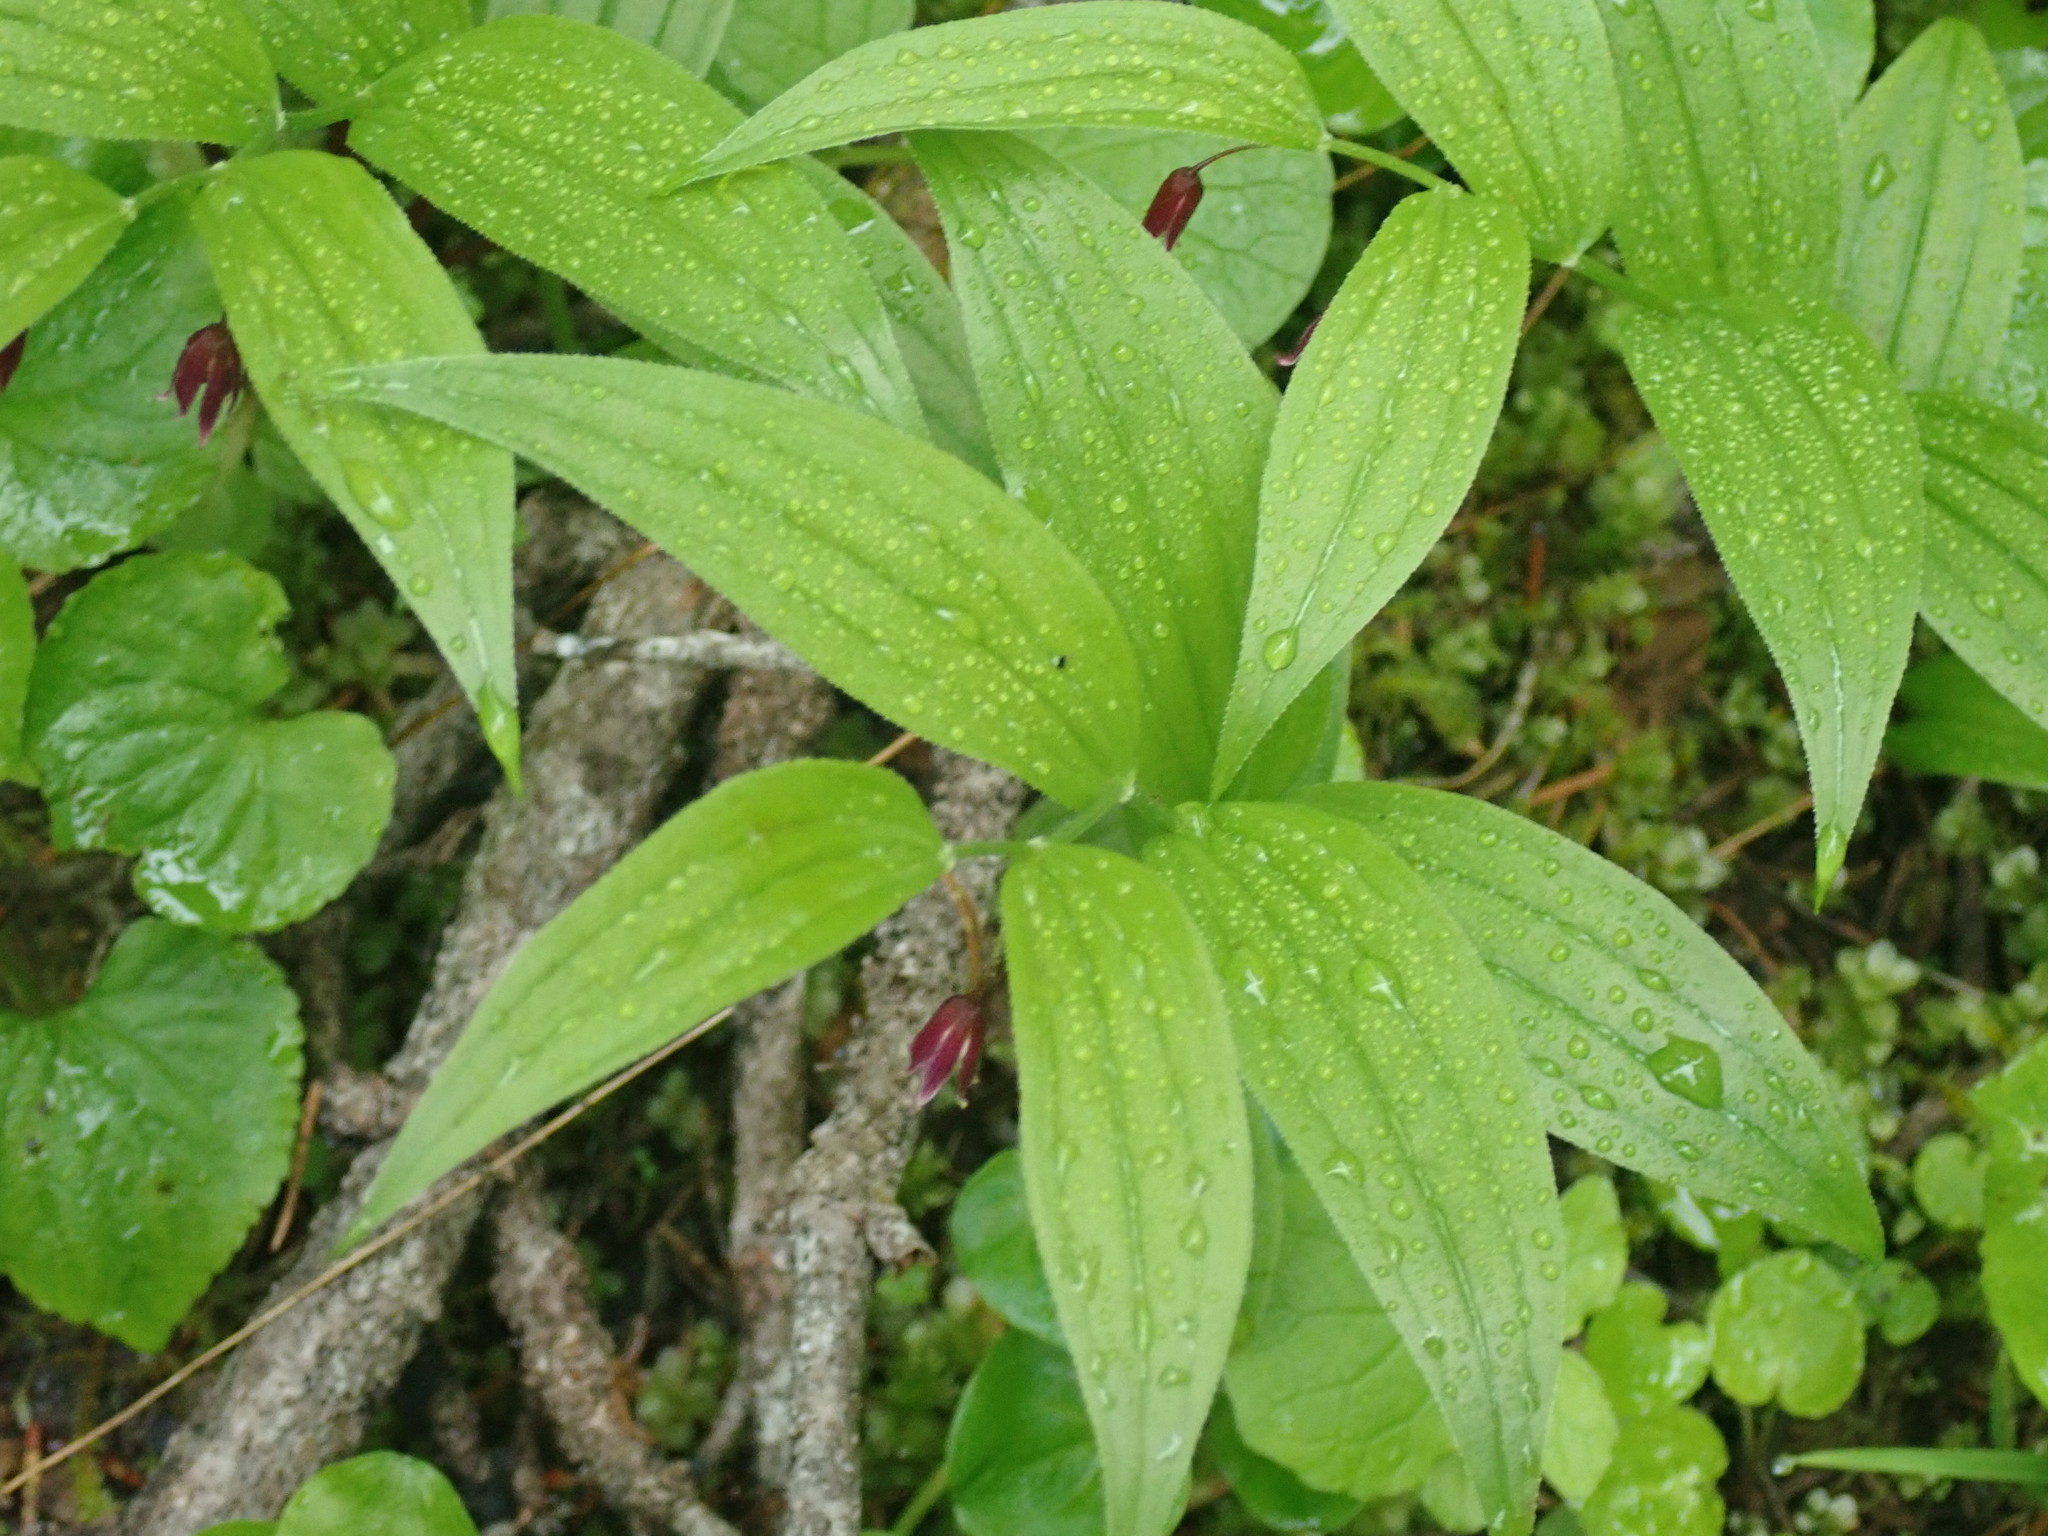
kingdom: Plantae
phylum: Tracheophyta
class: Liliopsida
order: Liliales
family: Liliaceae
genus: Streptopus
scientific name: Streptopus lanceolatus
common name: Rose mandarin
